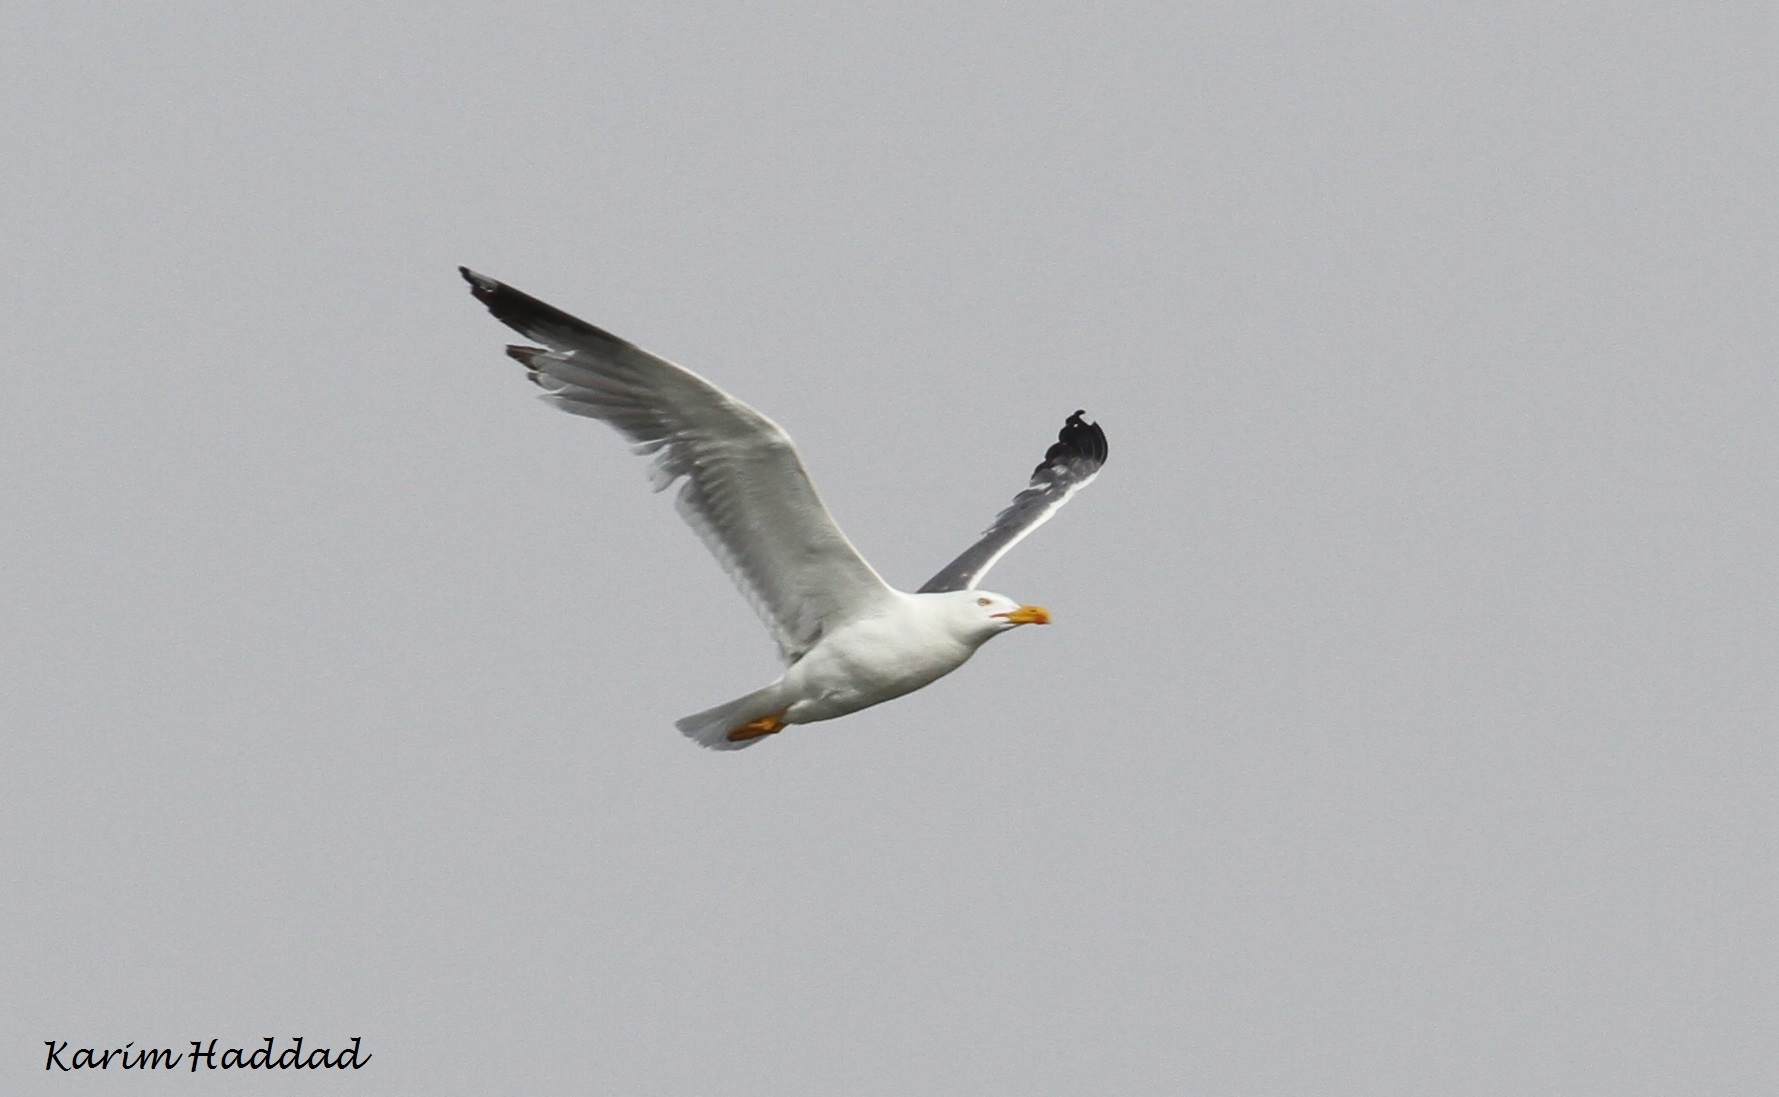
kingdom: Animalia
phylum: Chordata
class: Aves
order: Charadriiformes
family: Laridae
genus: Larus
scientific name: Larus michahellis
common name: Yellow-legged gull
